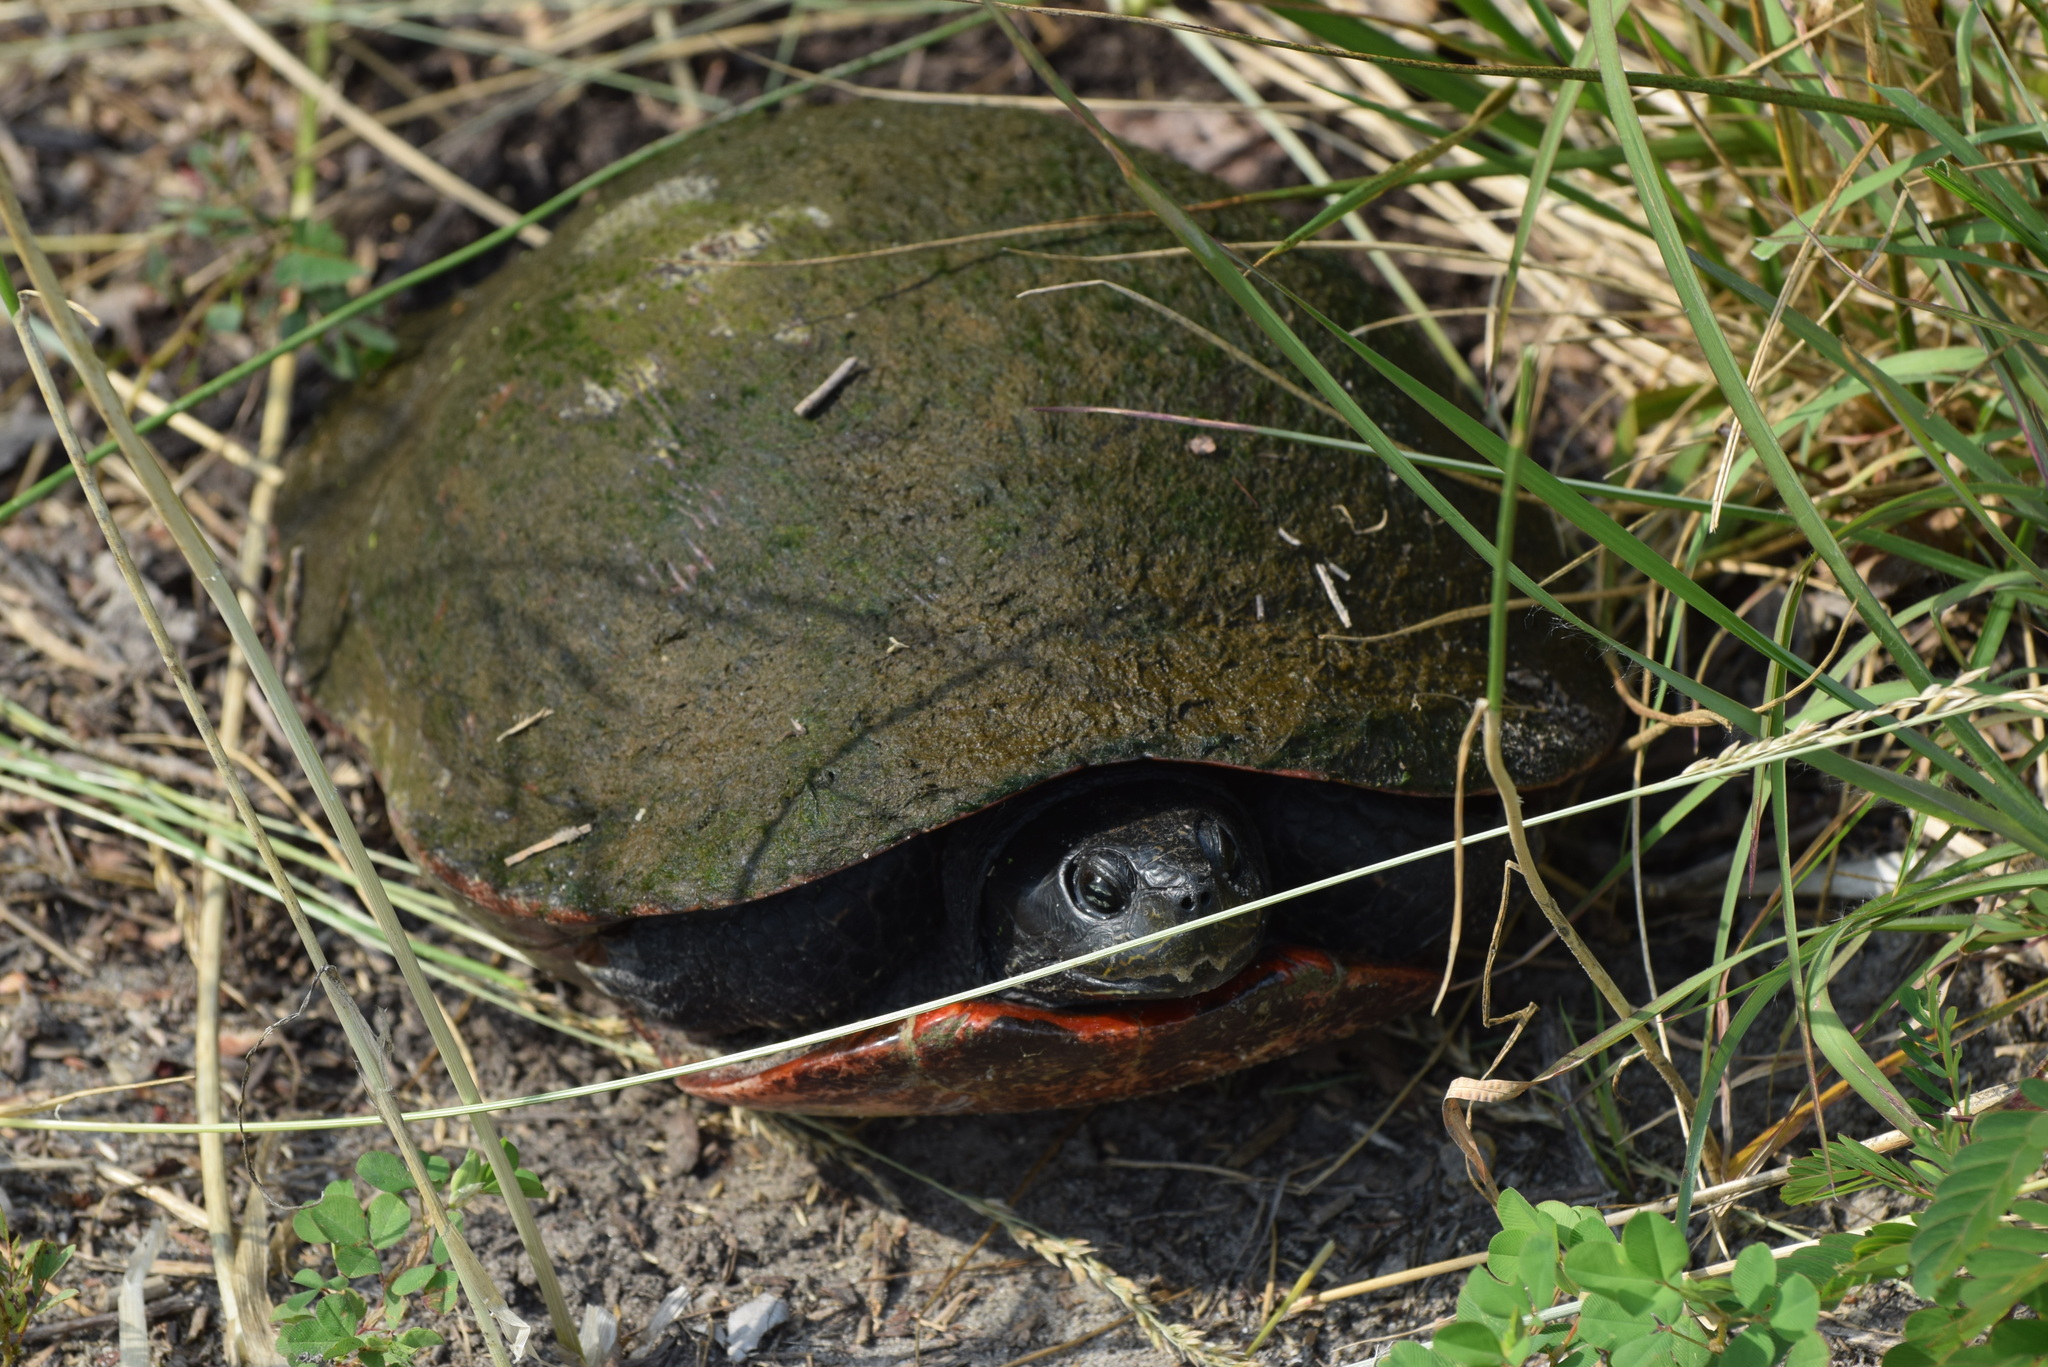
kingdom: Animalia
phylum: Chordata
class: Testudines
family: Emydidae
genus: Pseudemys
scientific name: Pseudemys rubriventris
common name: American red-bellied turtle
